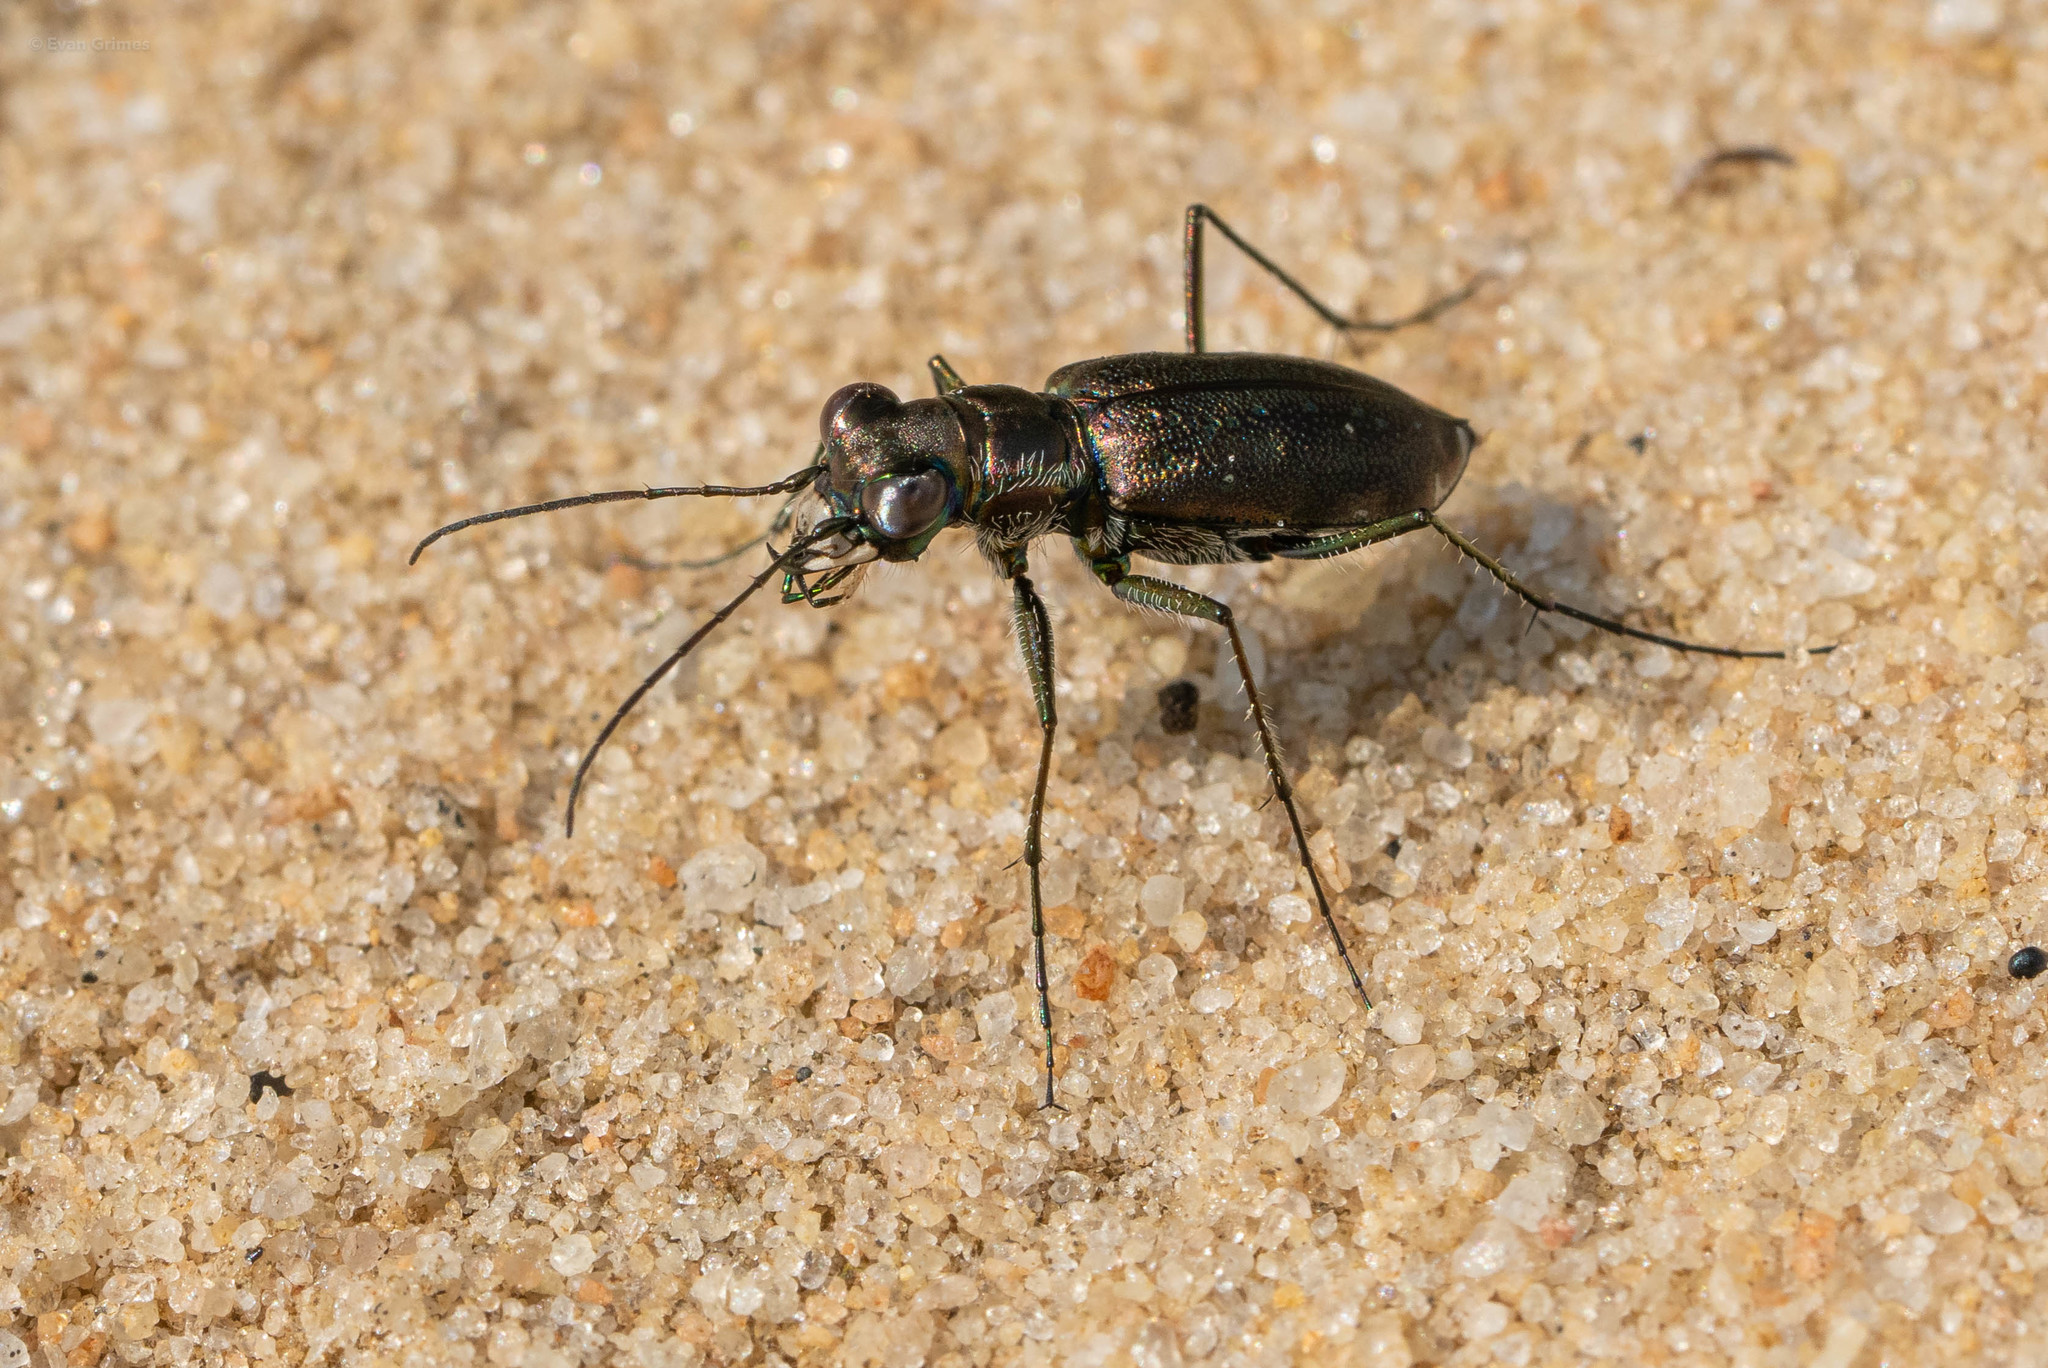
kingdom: Animalia
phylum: Arthropoda
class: Insecta
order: Coleoptera
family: Carabidae
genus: Cicindela
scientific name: Cicindela punctulata
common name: Punctured tiger beetle
